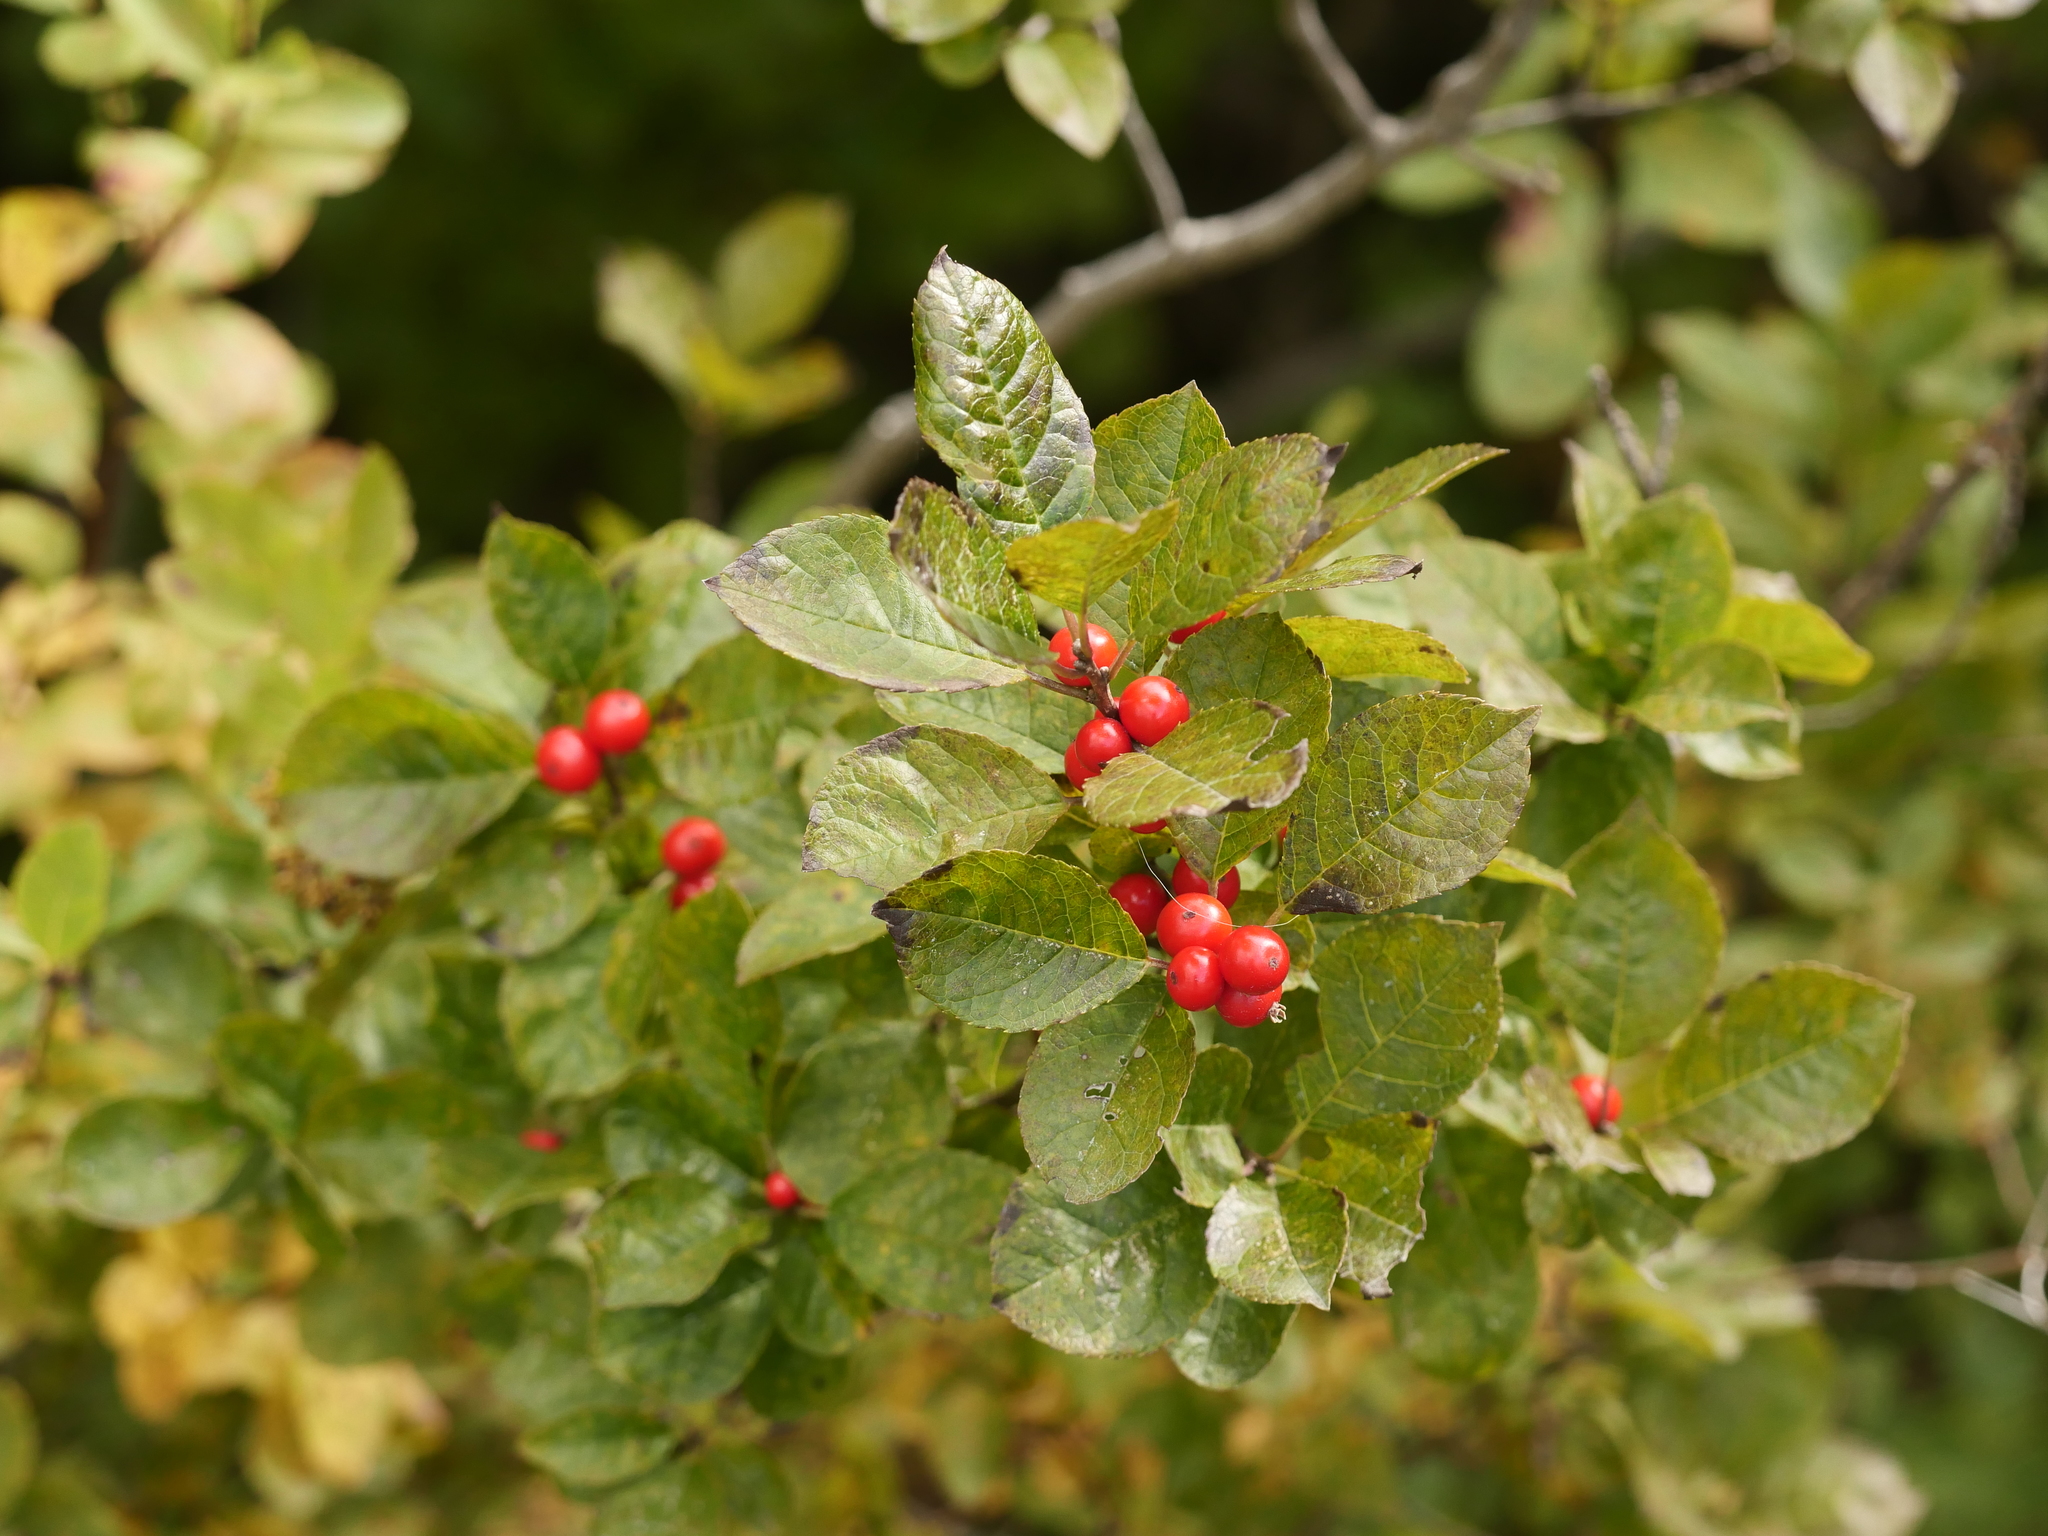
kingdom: Plantae
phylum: Tracheophyta
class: Magnoliopsida
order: Aquifoliales
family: Aquifoliaceae
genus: Ilex
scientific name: Ilex verticillata
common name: Virginia winterberry
